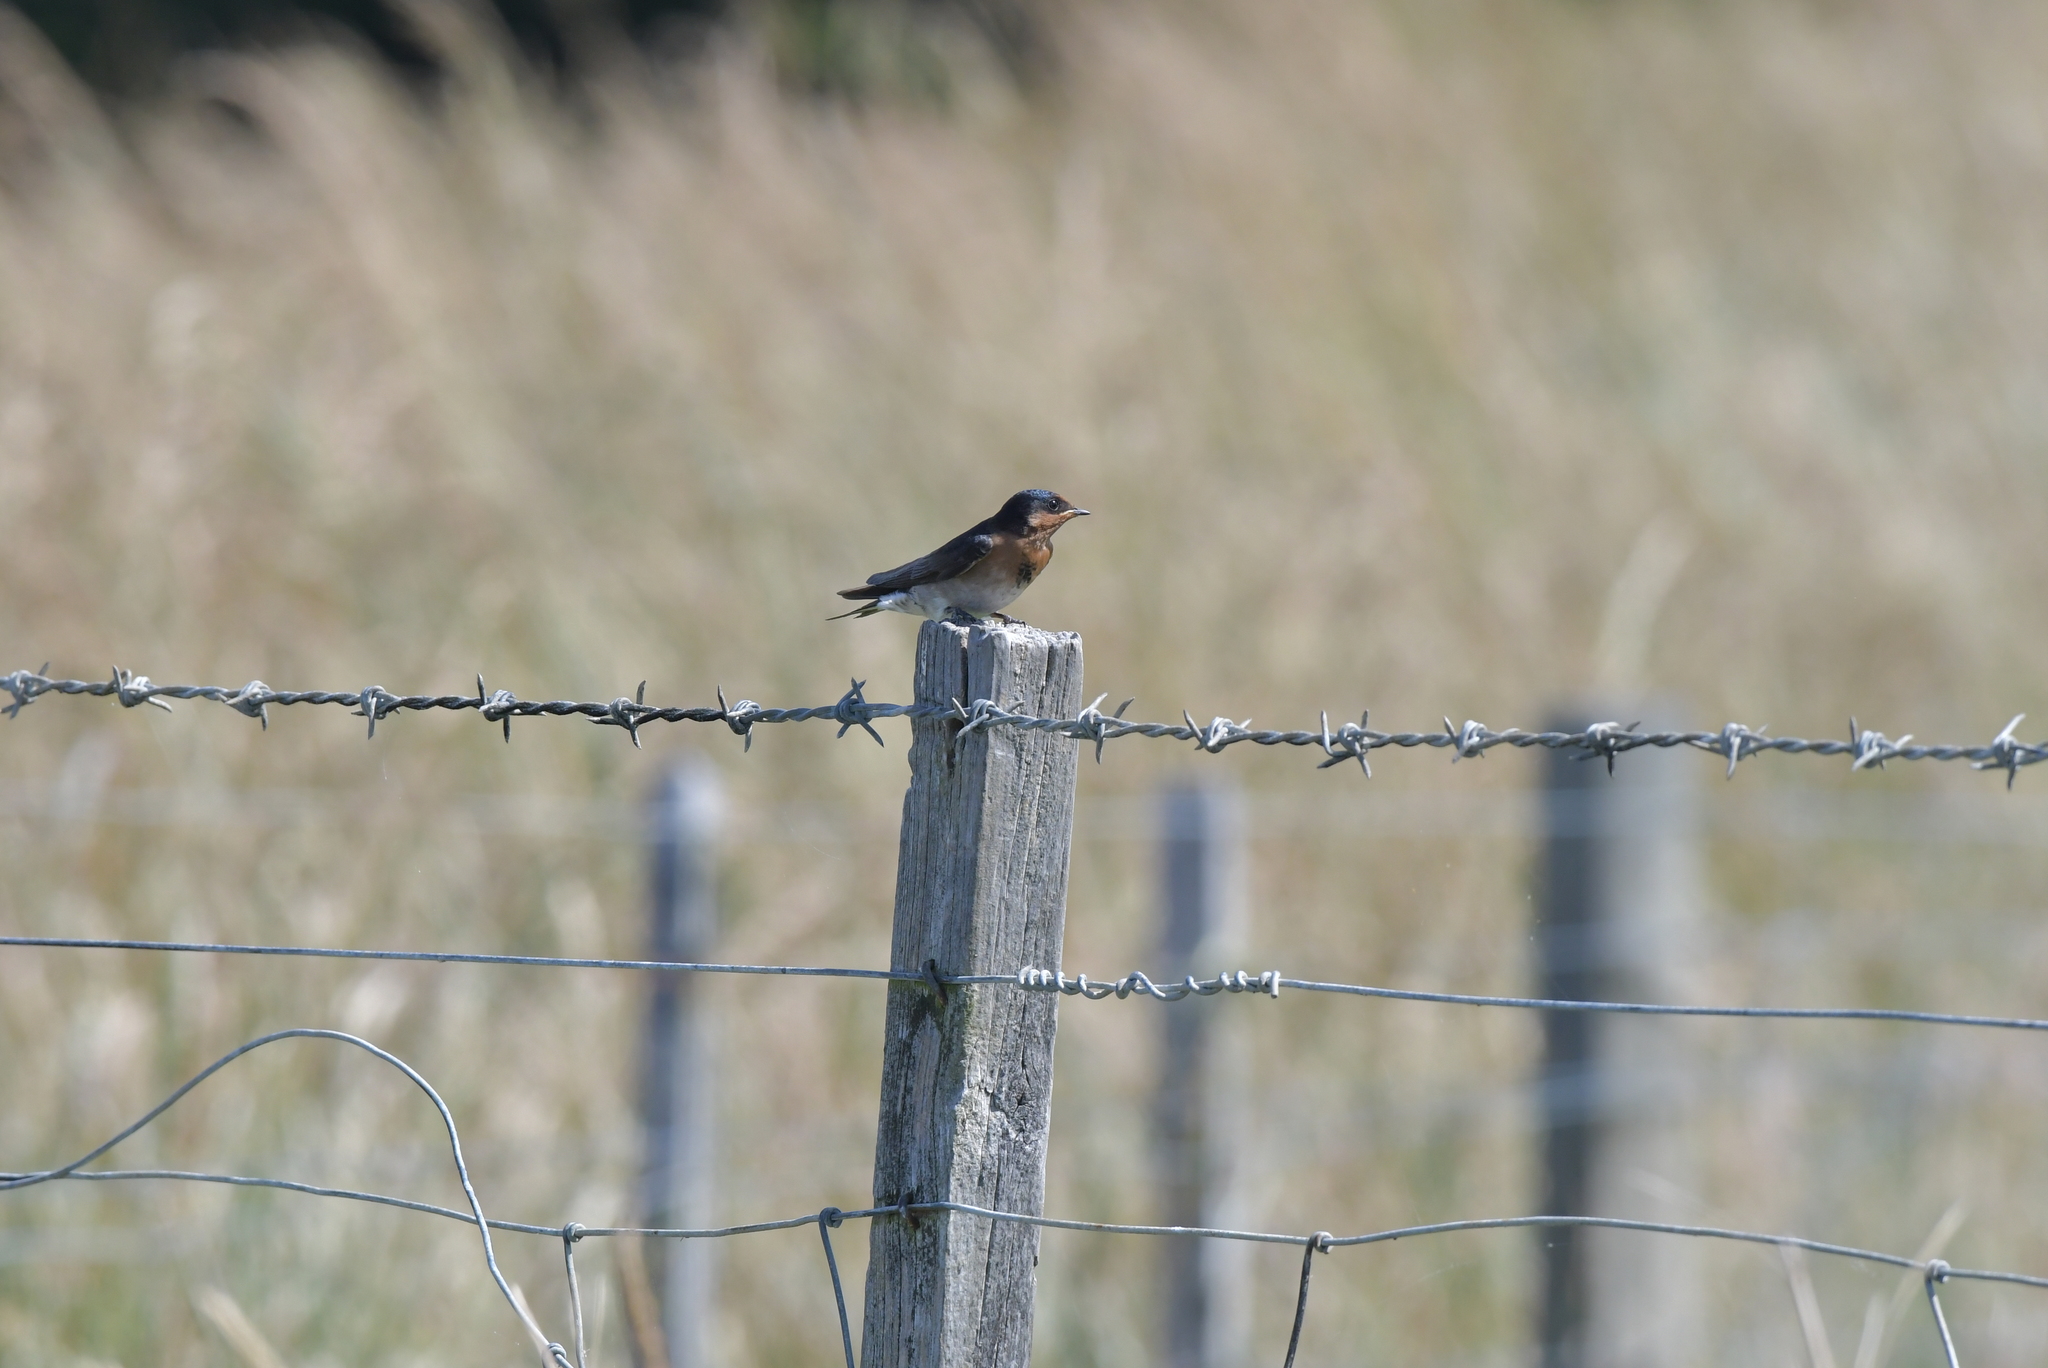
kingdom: Animalia
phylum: Chordata
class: Aves
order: Passeriformes
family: Hirundinidae
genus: Hirundo
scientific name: Hirundo neoxena
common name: Welcome swallow
